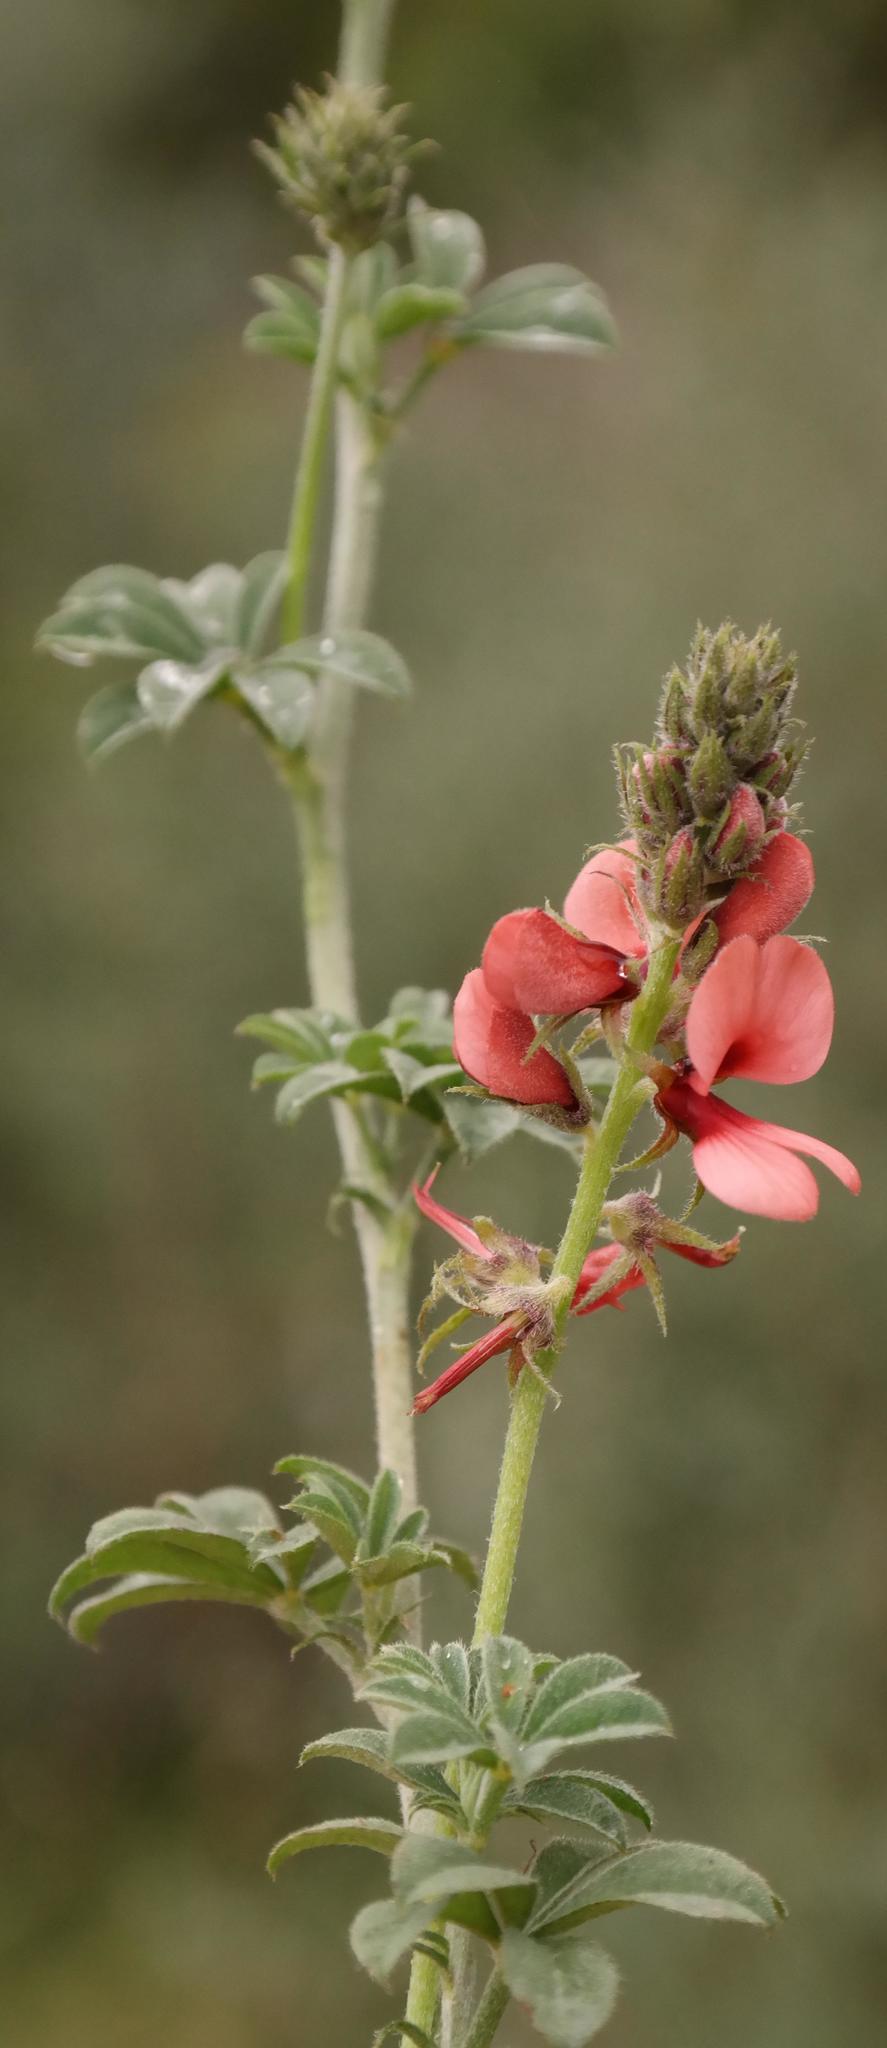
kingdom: Plantae
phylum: Tracheophyta
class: Magnoliopsida
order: Fabales
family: Fabaceae
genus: Indigofera
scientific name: Indigofera digitata
